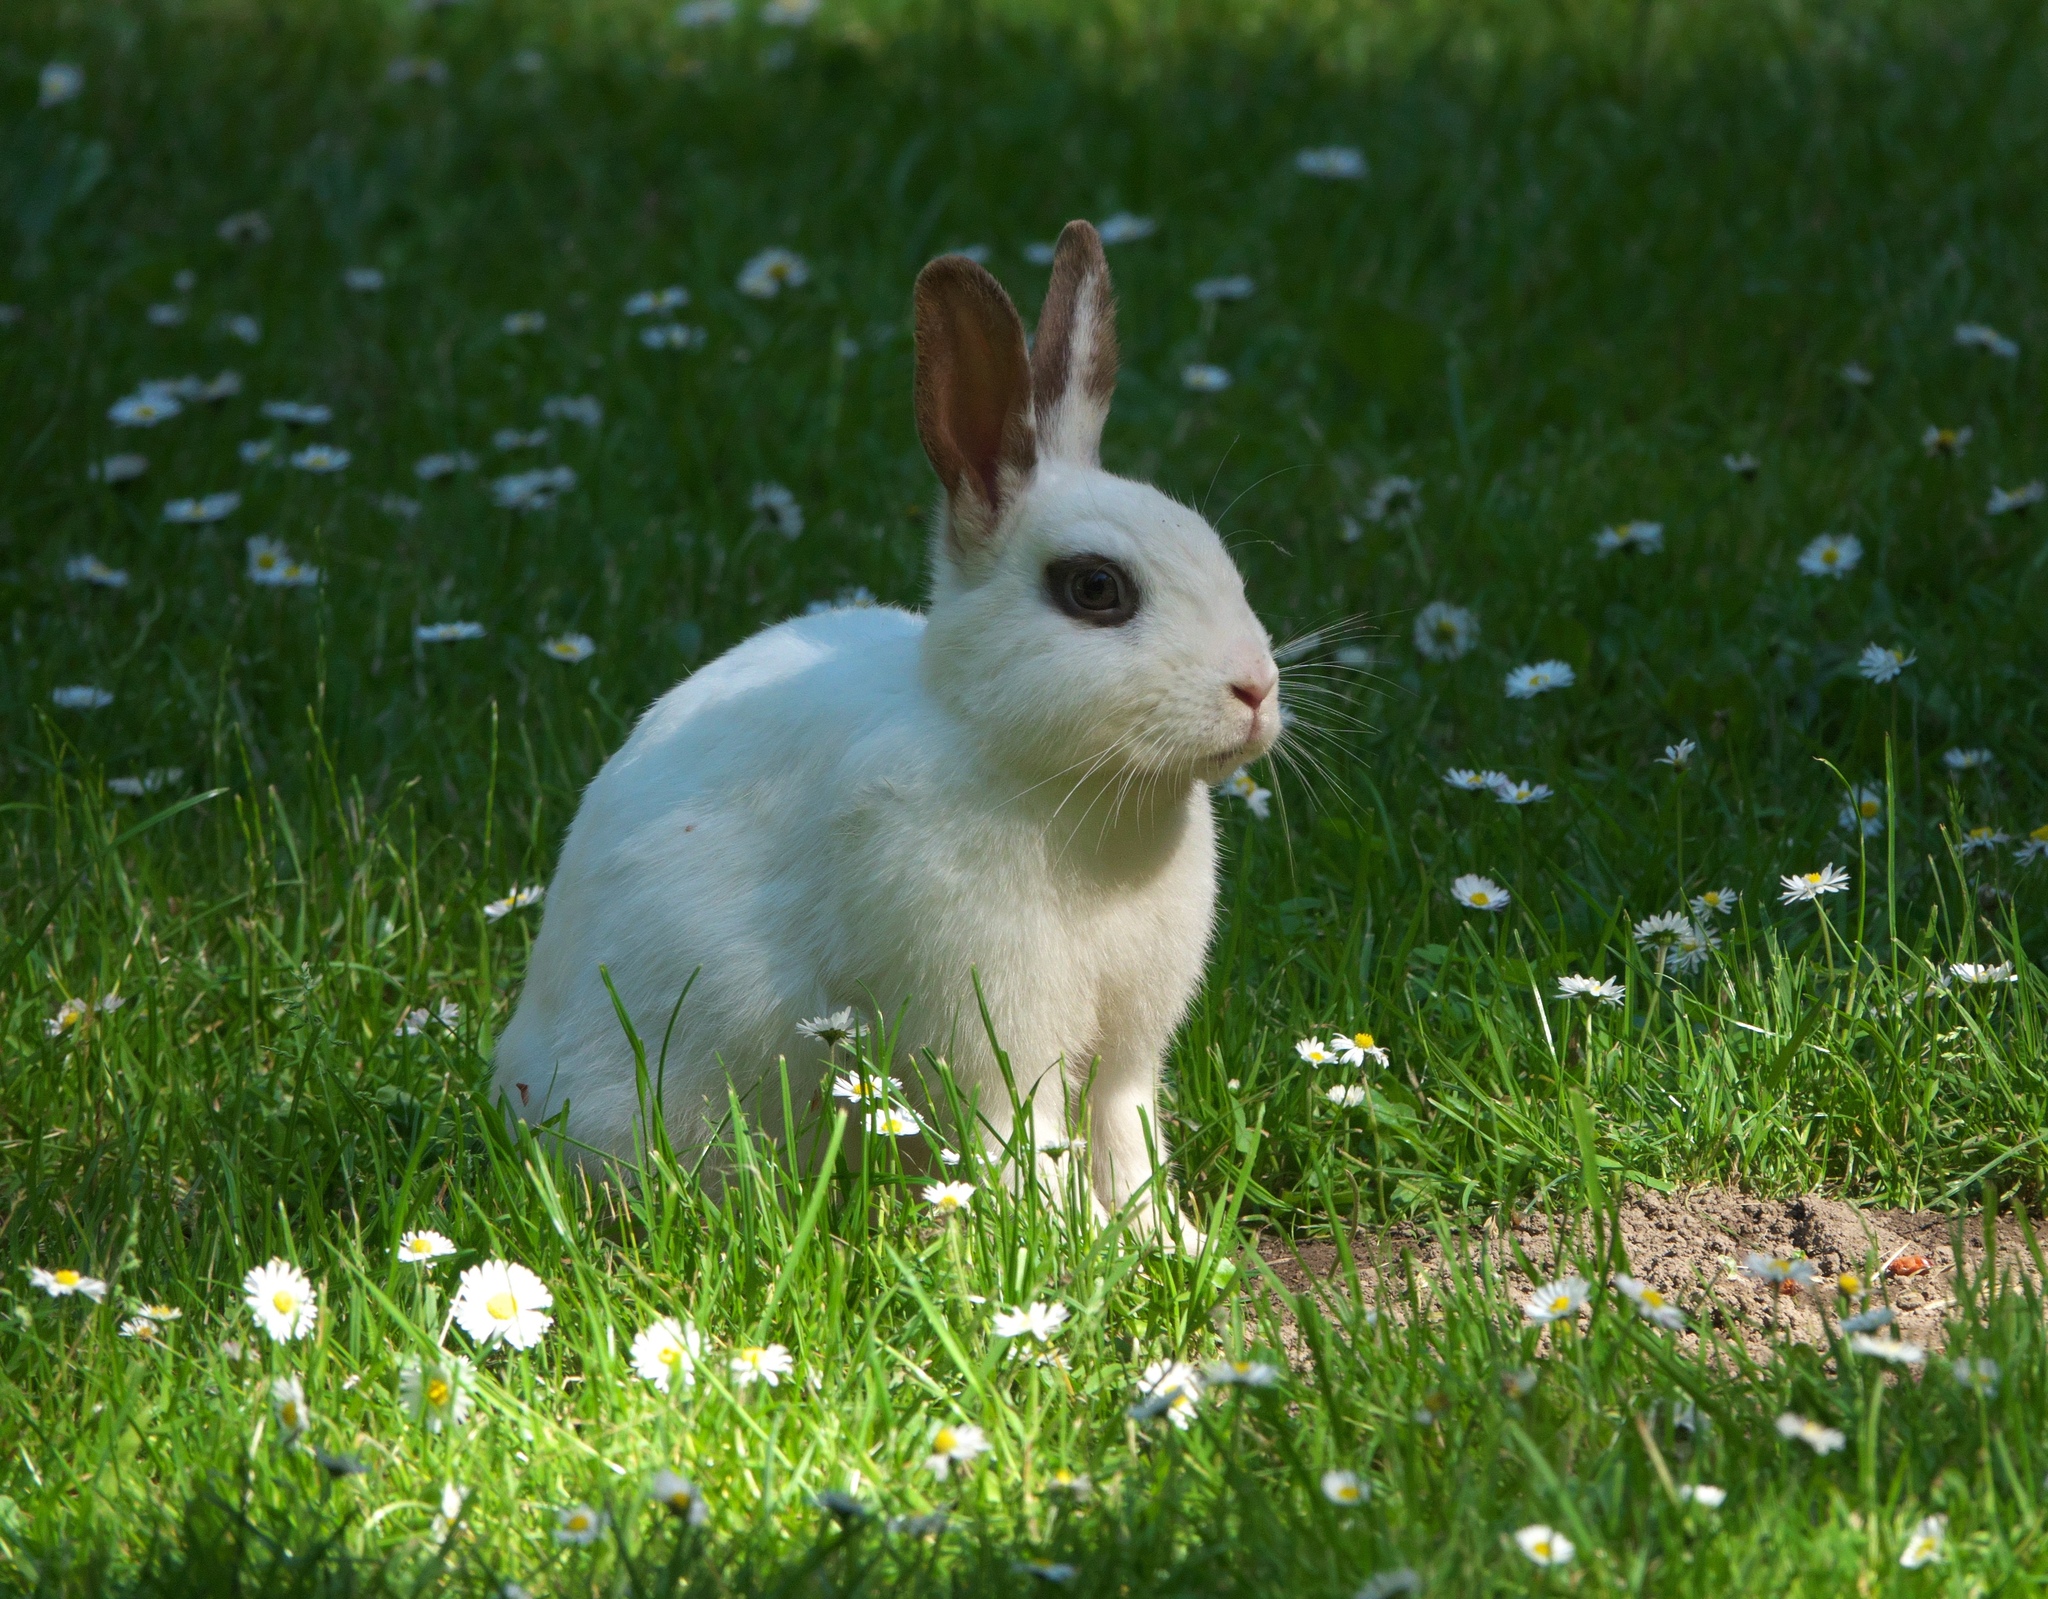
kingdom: Animalia
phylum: Chordata
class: Mammalia
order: Lagomorpha
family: Leporidae
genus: Oryctolagus
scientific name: Oryctolagus cuniculus
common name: European rabbit
